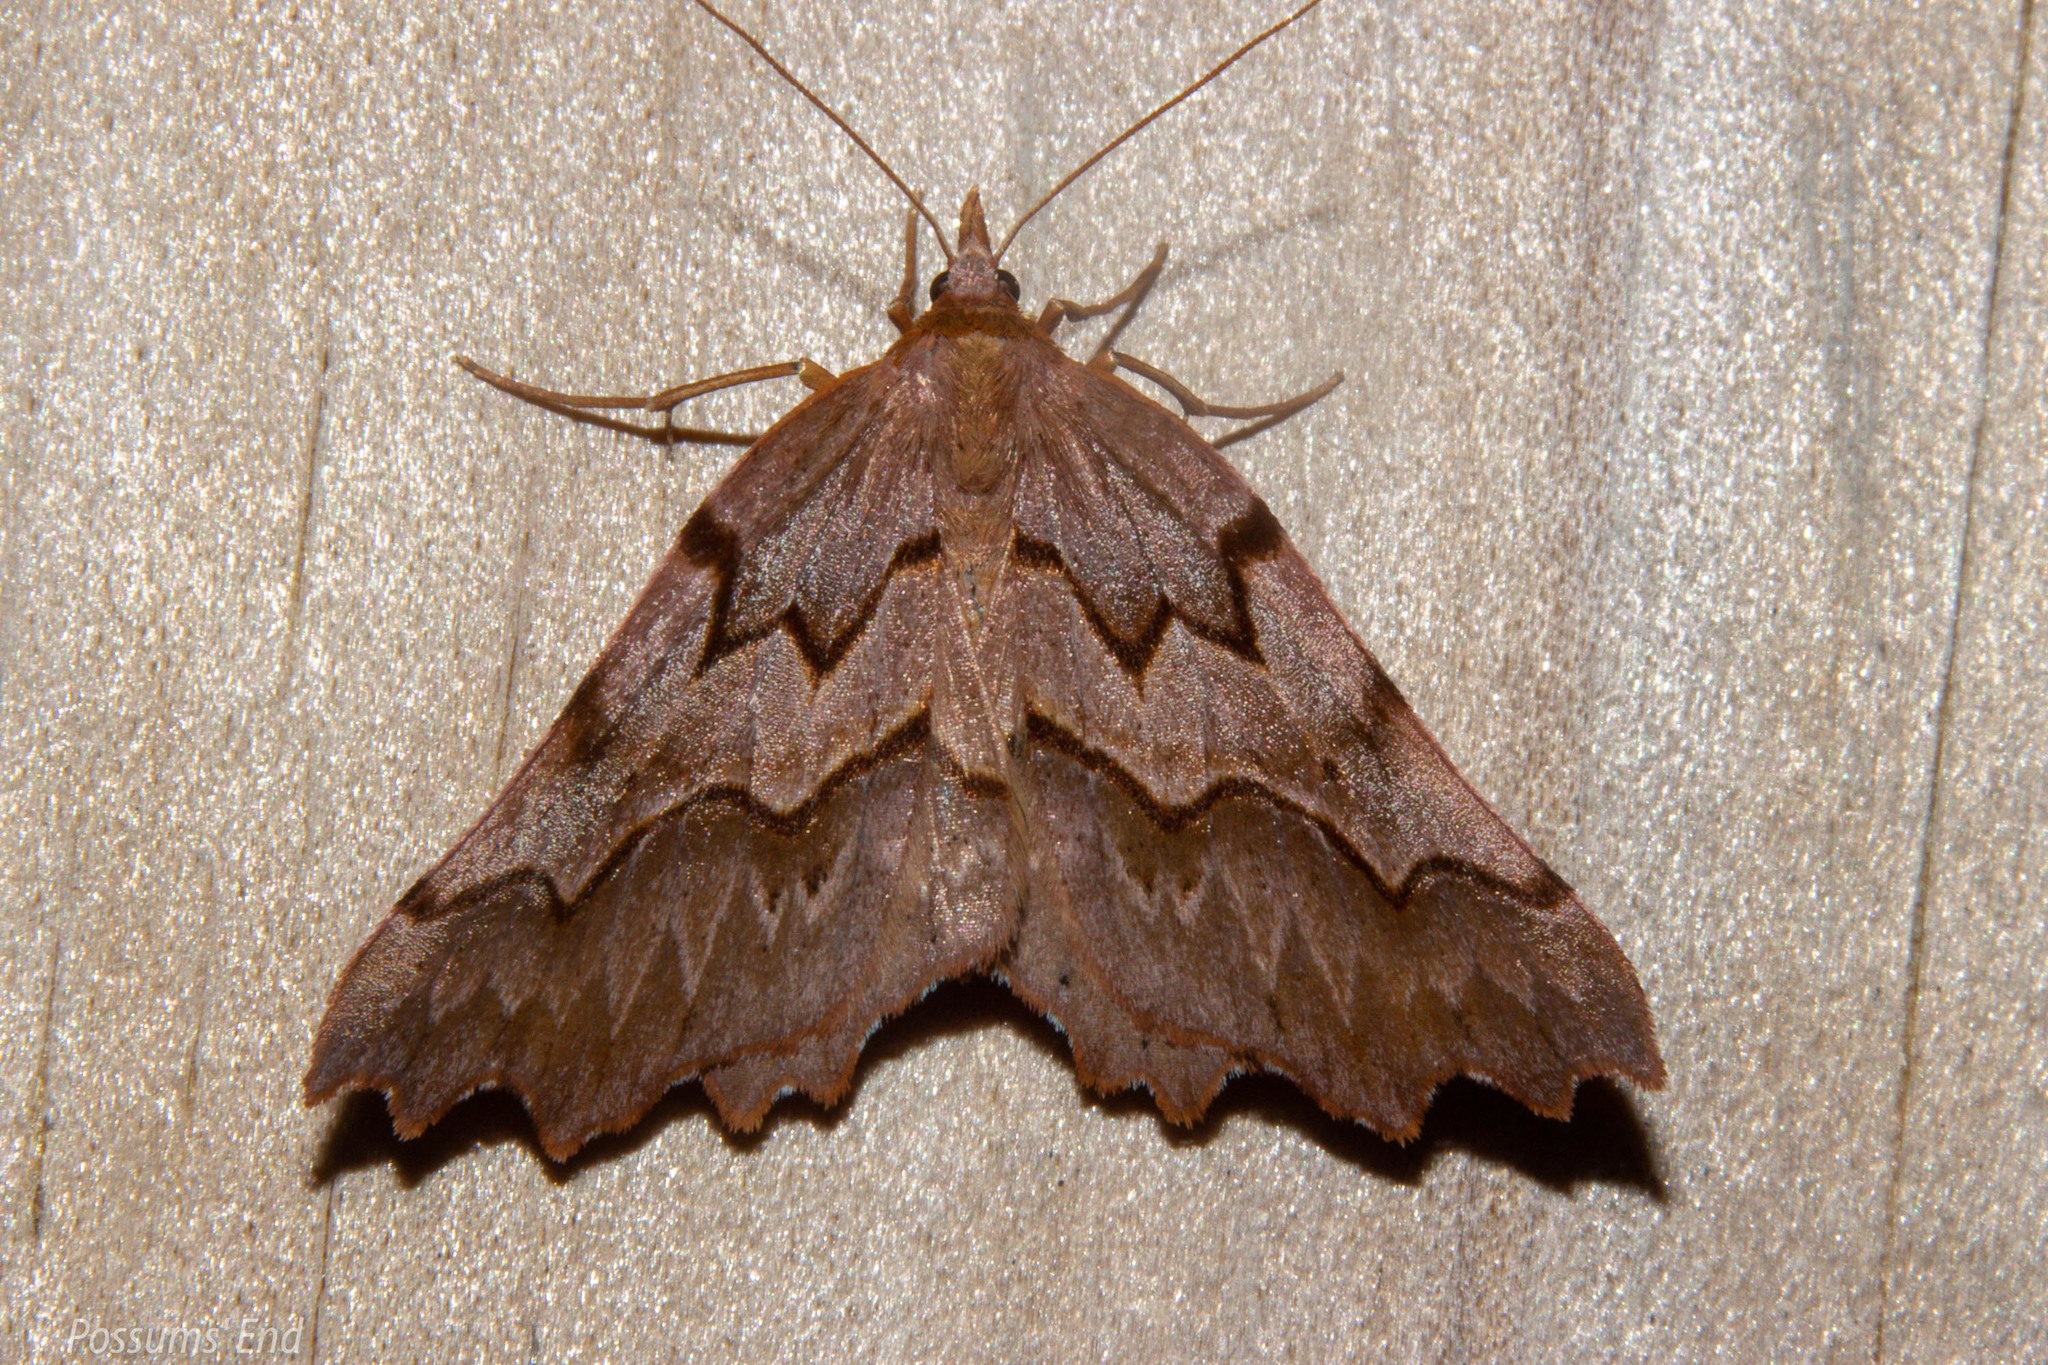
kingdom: Animalia
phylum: Arthropoda
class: Insecta
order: Lepidoptera
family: Geometridae
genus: Ischalis
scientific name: Ischalis fortinata
